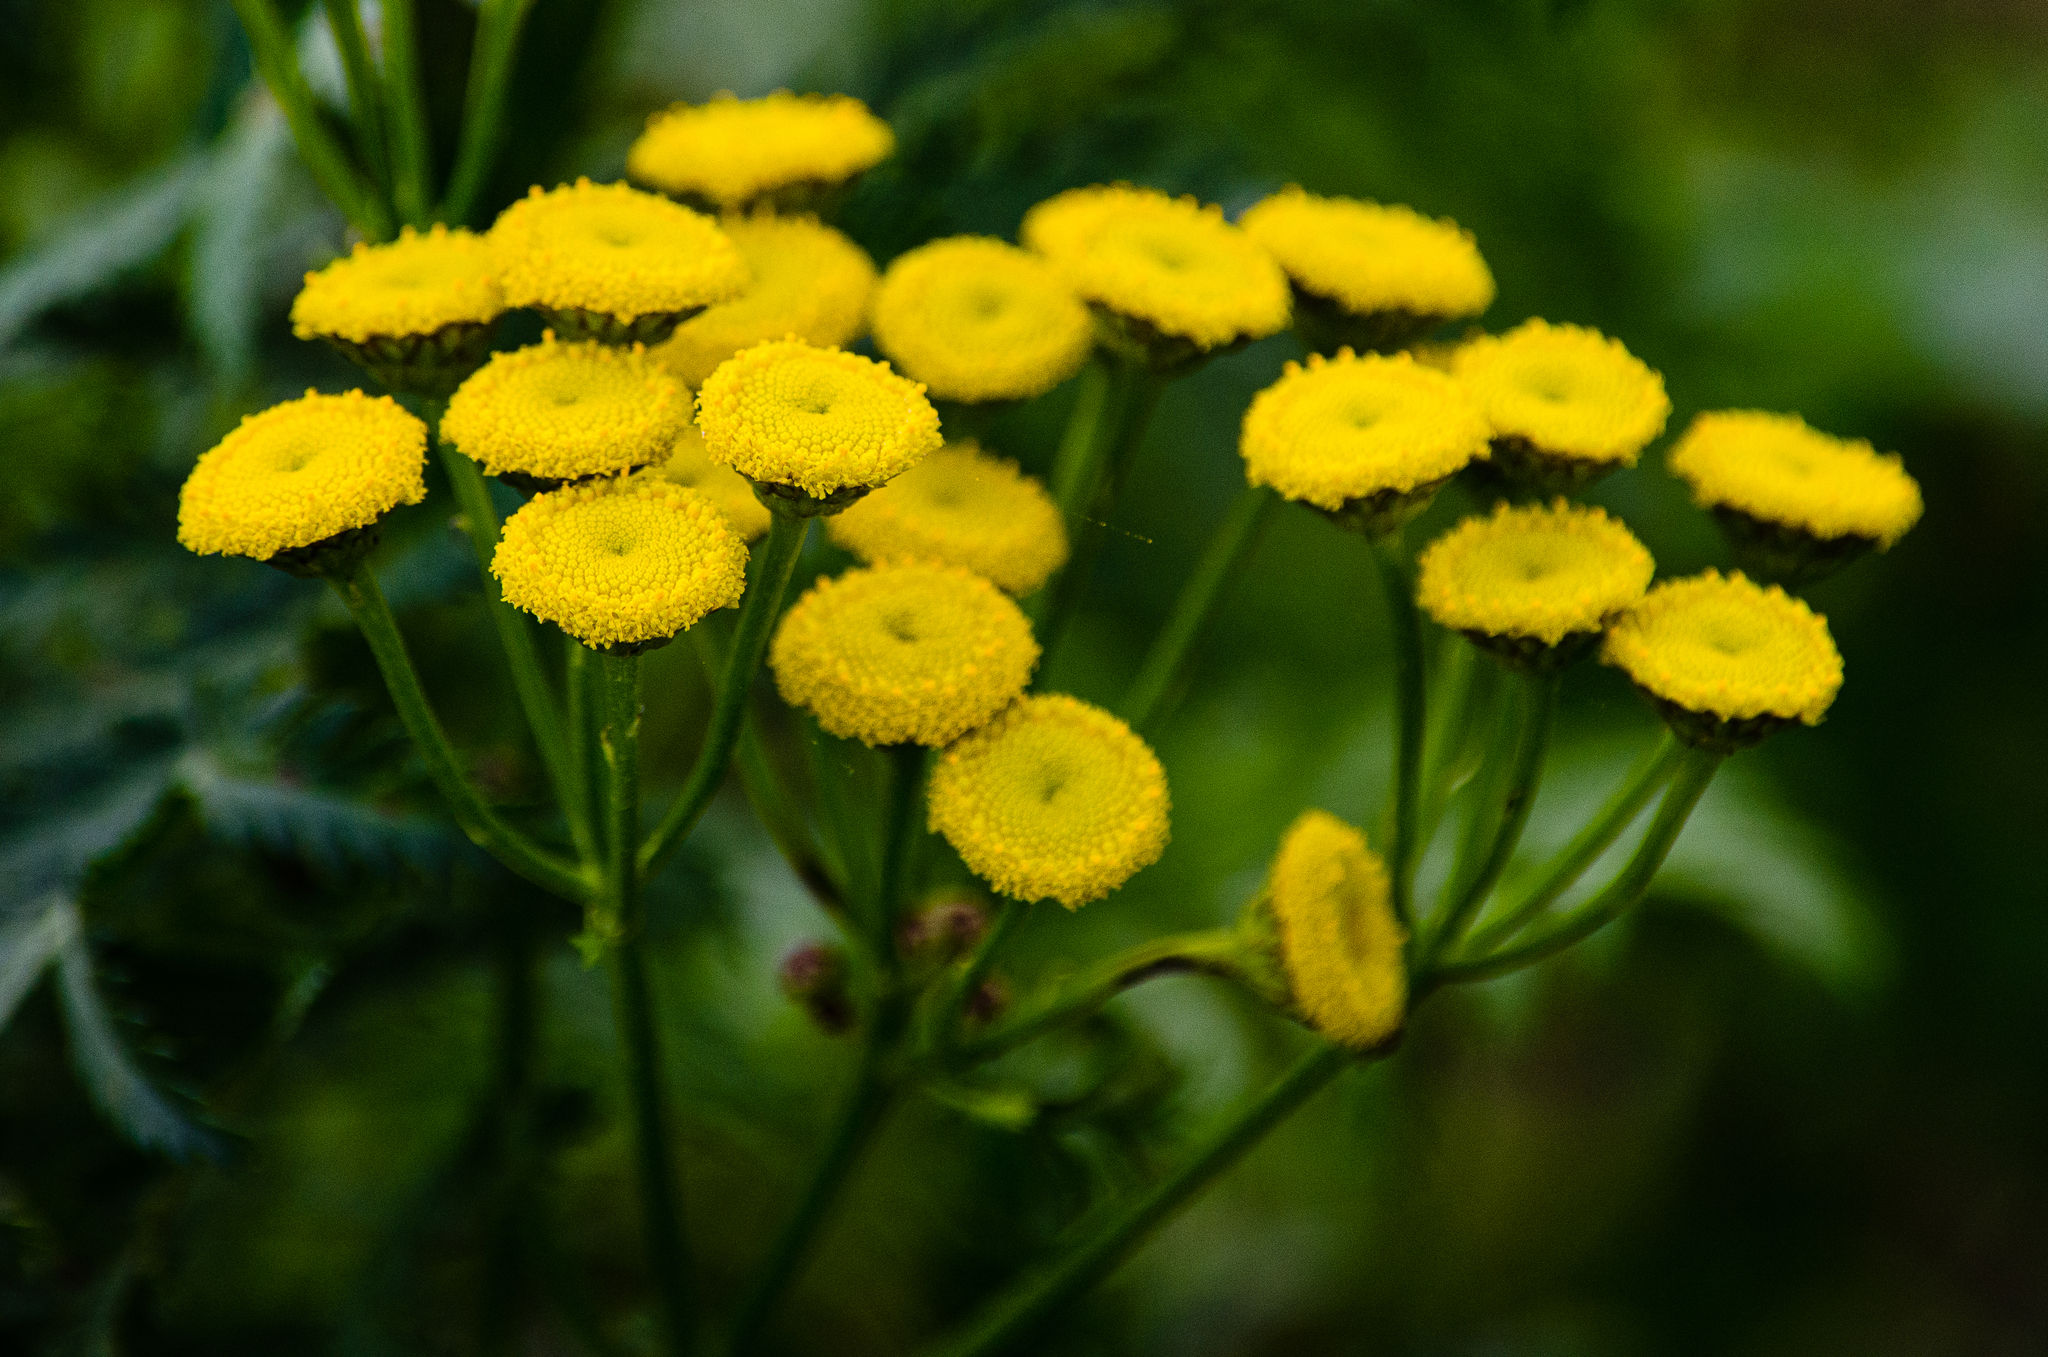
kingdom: Plantae
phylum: Tracheophyta
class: Magnoliopsida
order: Asterales
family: Asteraceae
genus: Tanacetum
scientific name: Tanacetum vulgare
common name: Common tansy
